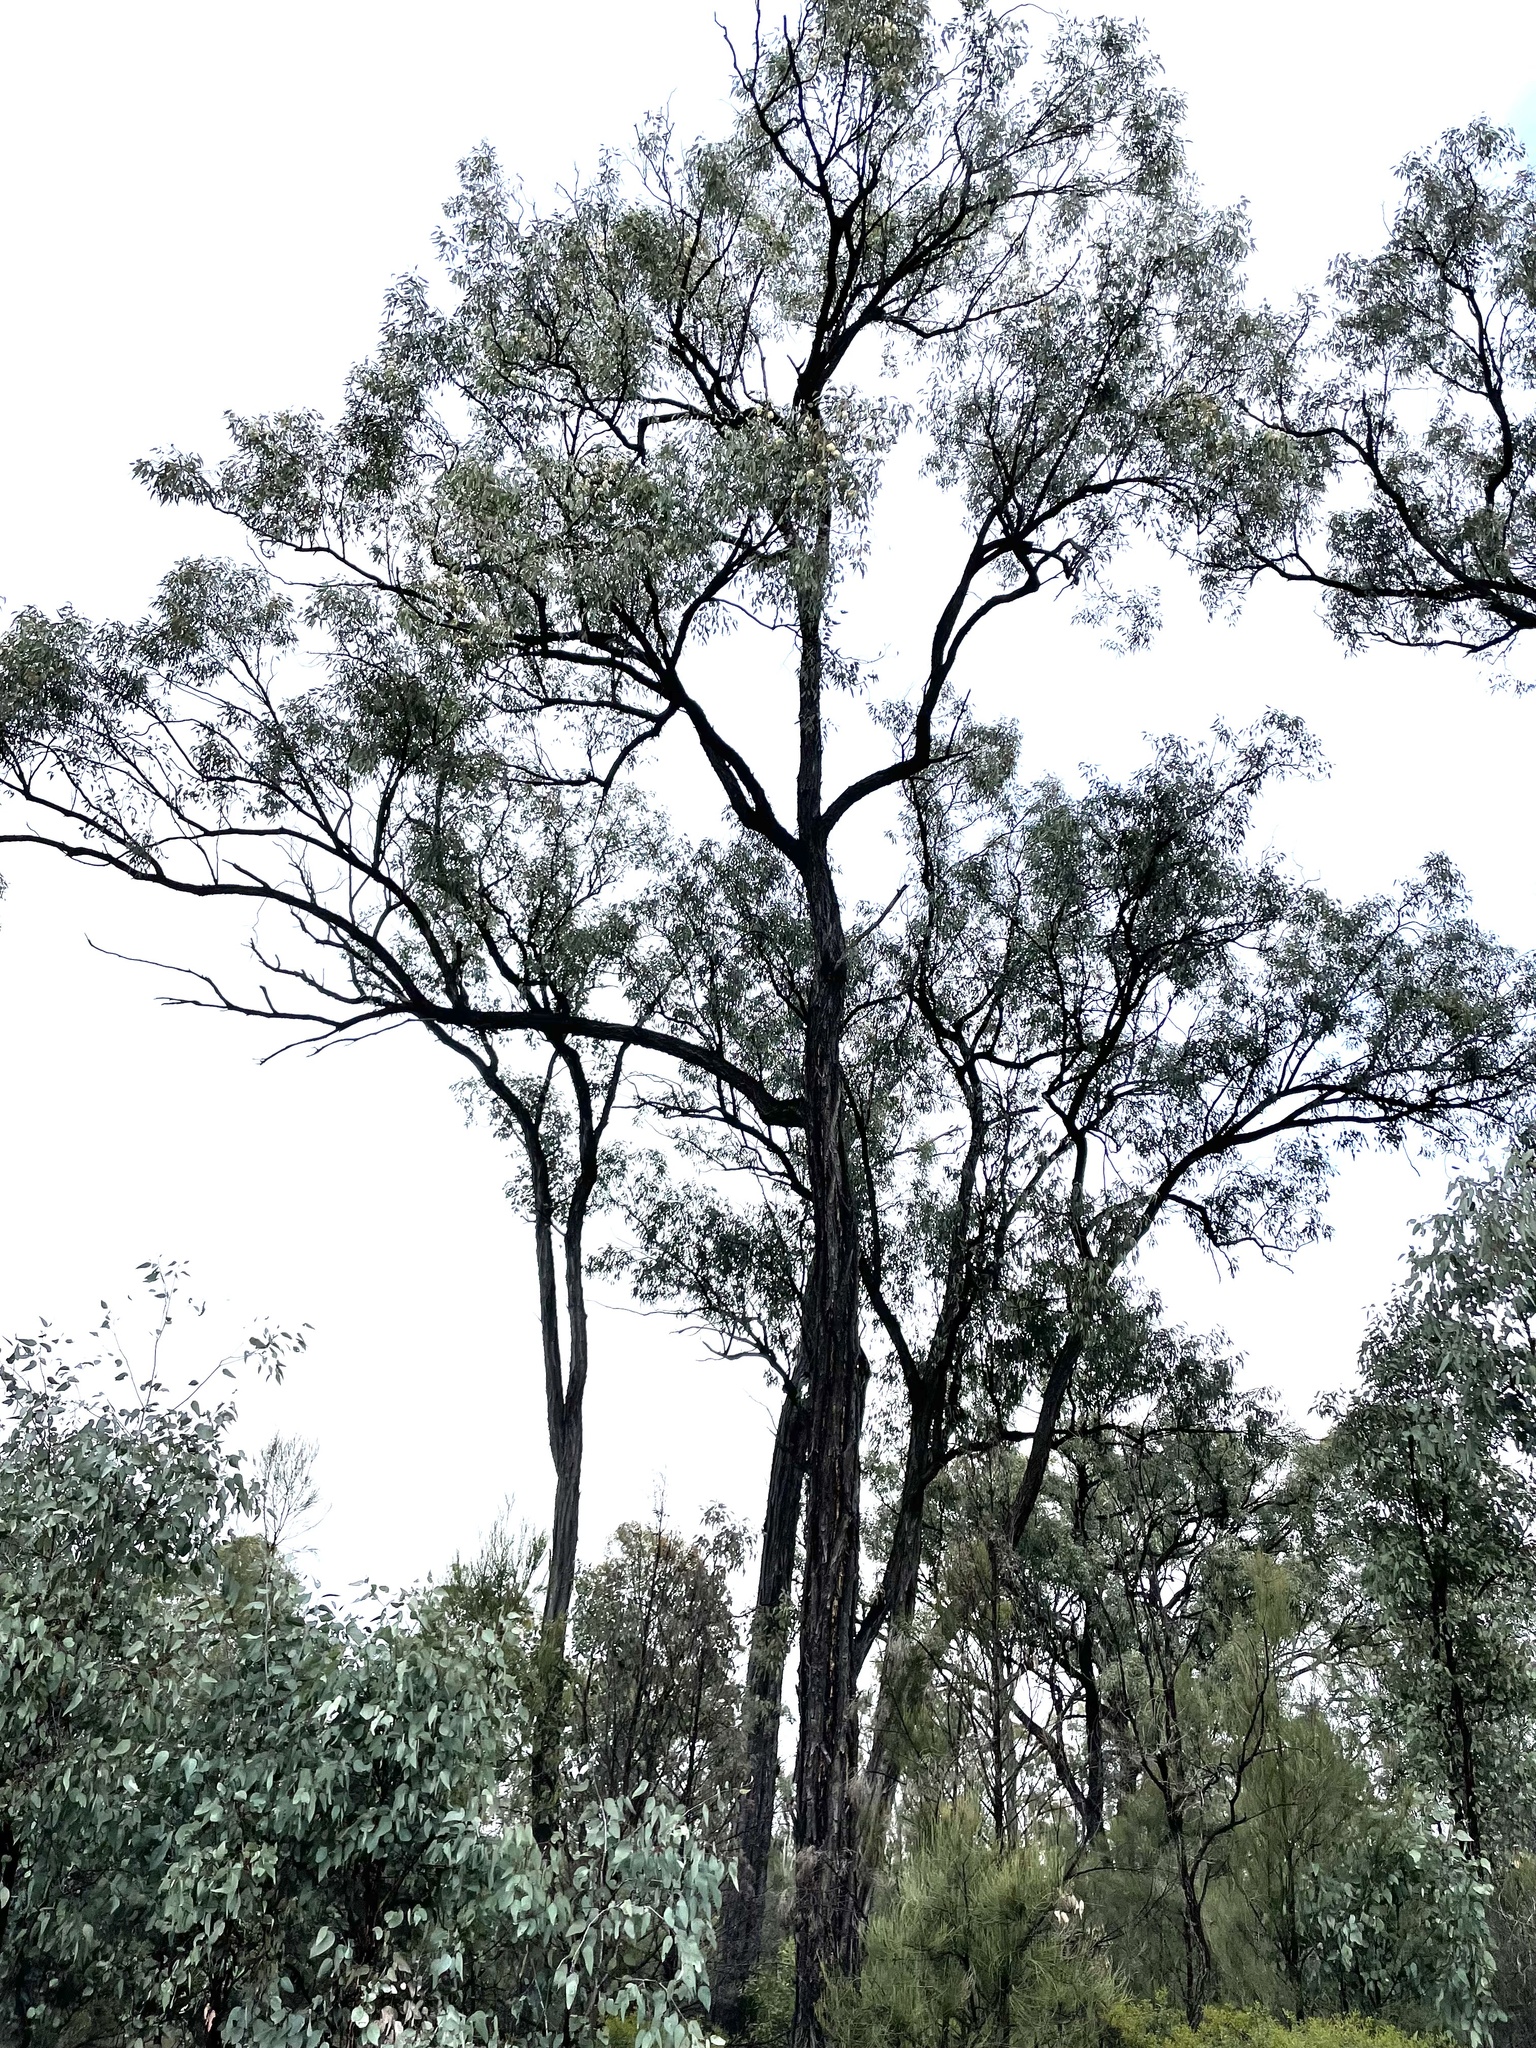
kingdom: Plantae
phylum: Tracheophyta
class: Magnoliopsida
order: Myrtales
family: Myrtaceae
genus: Eucalyptus
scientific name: Eucalyptus fibrosa
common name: Red ironbark
